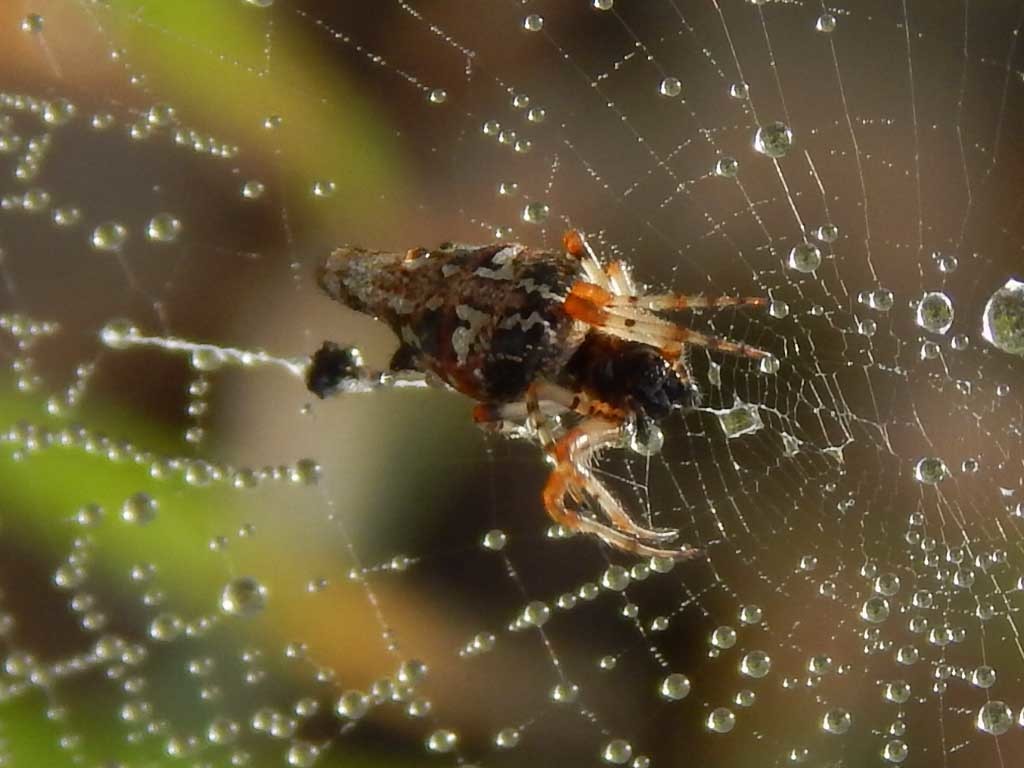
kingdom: Animalia
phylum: Arthropoda
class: Arachnida
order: Araneae
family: Araneidae
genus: Cyclosa
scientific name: Cyclosa insulana
